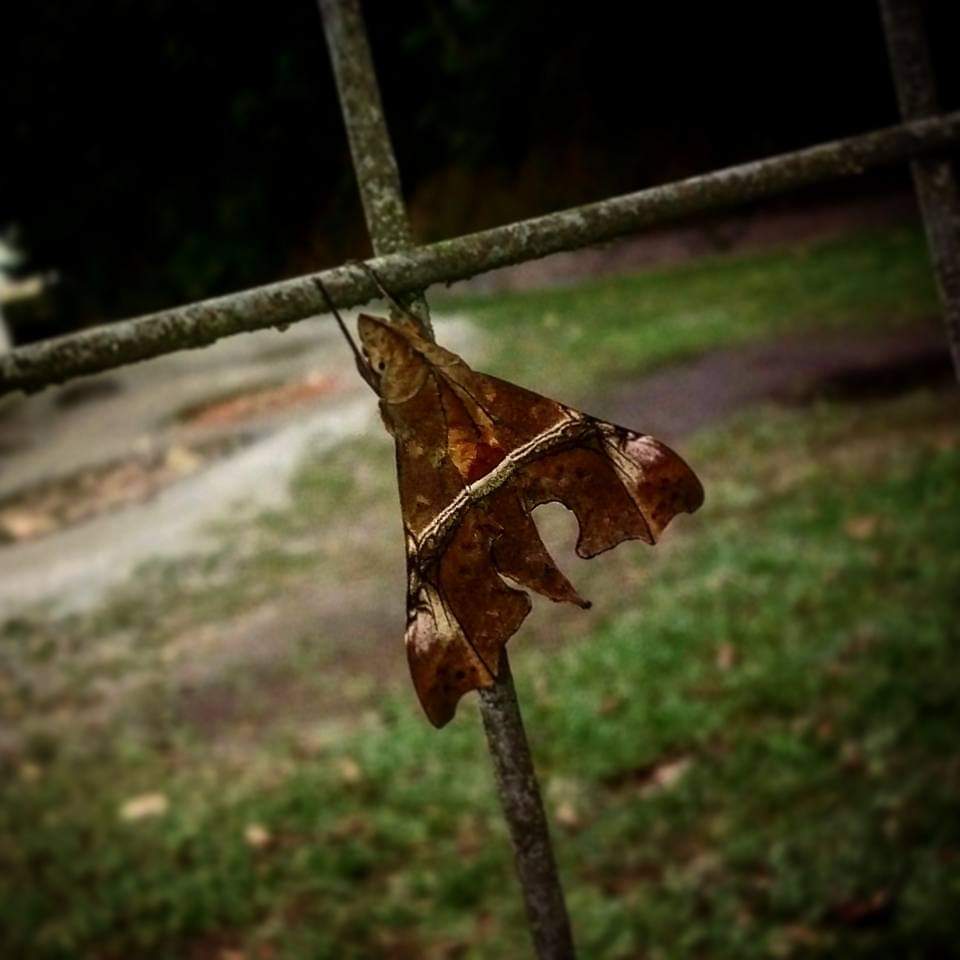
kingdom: Animalia
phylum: Arthropoda
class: Insecta
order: Lepidoptera
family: Sphingidae
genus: Aleuron
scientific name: Aleuron iphis
